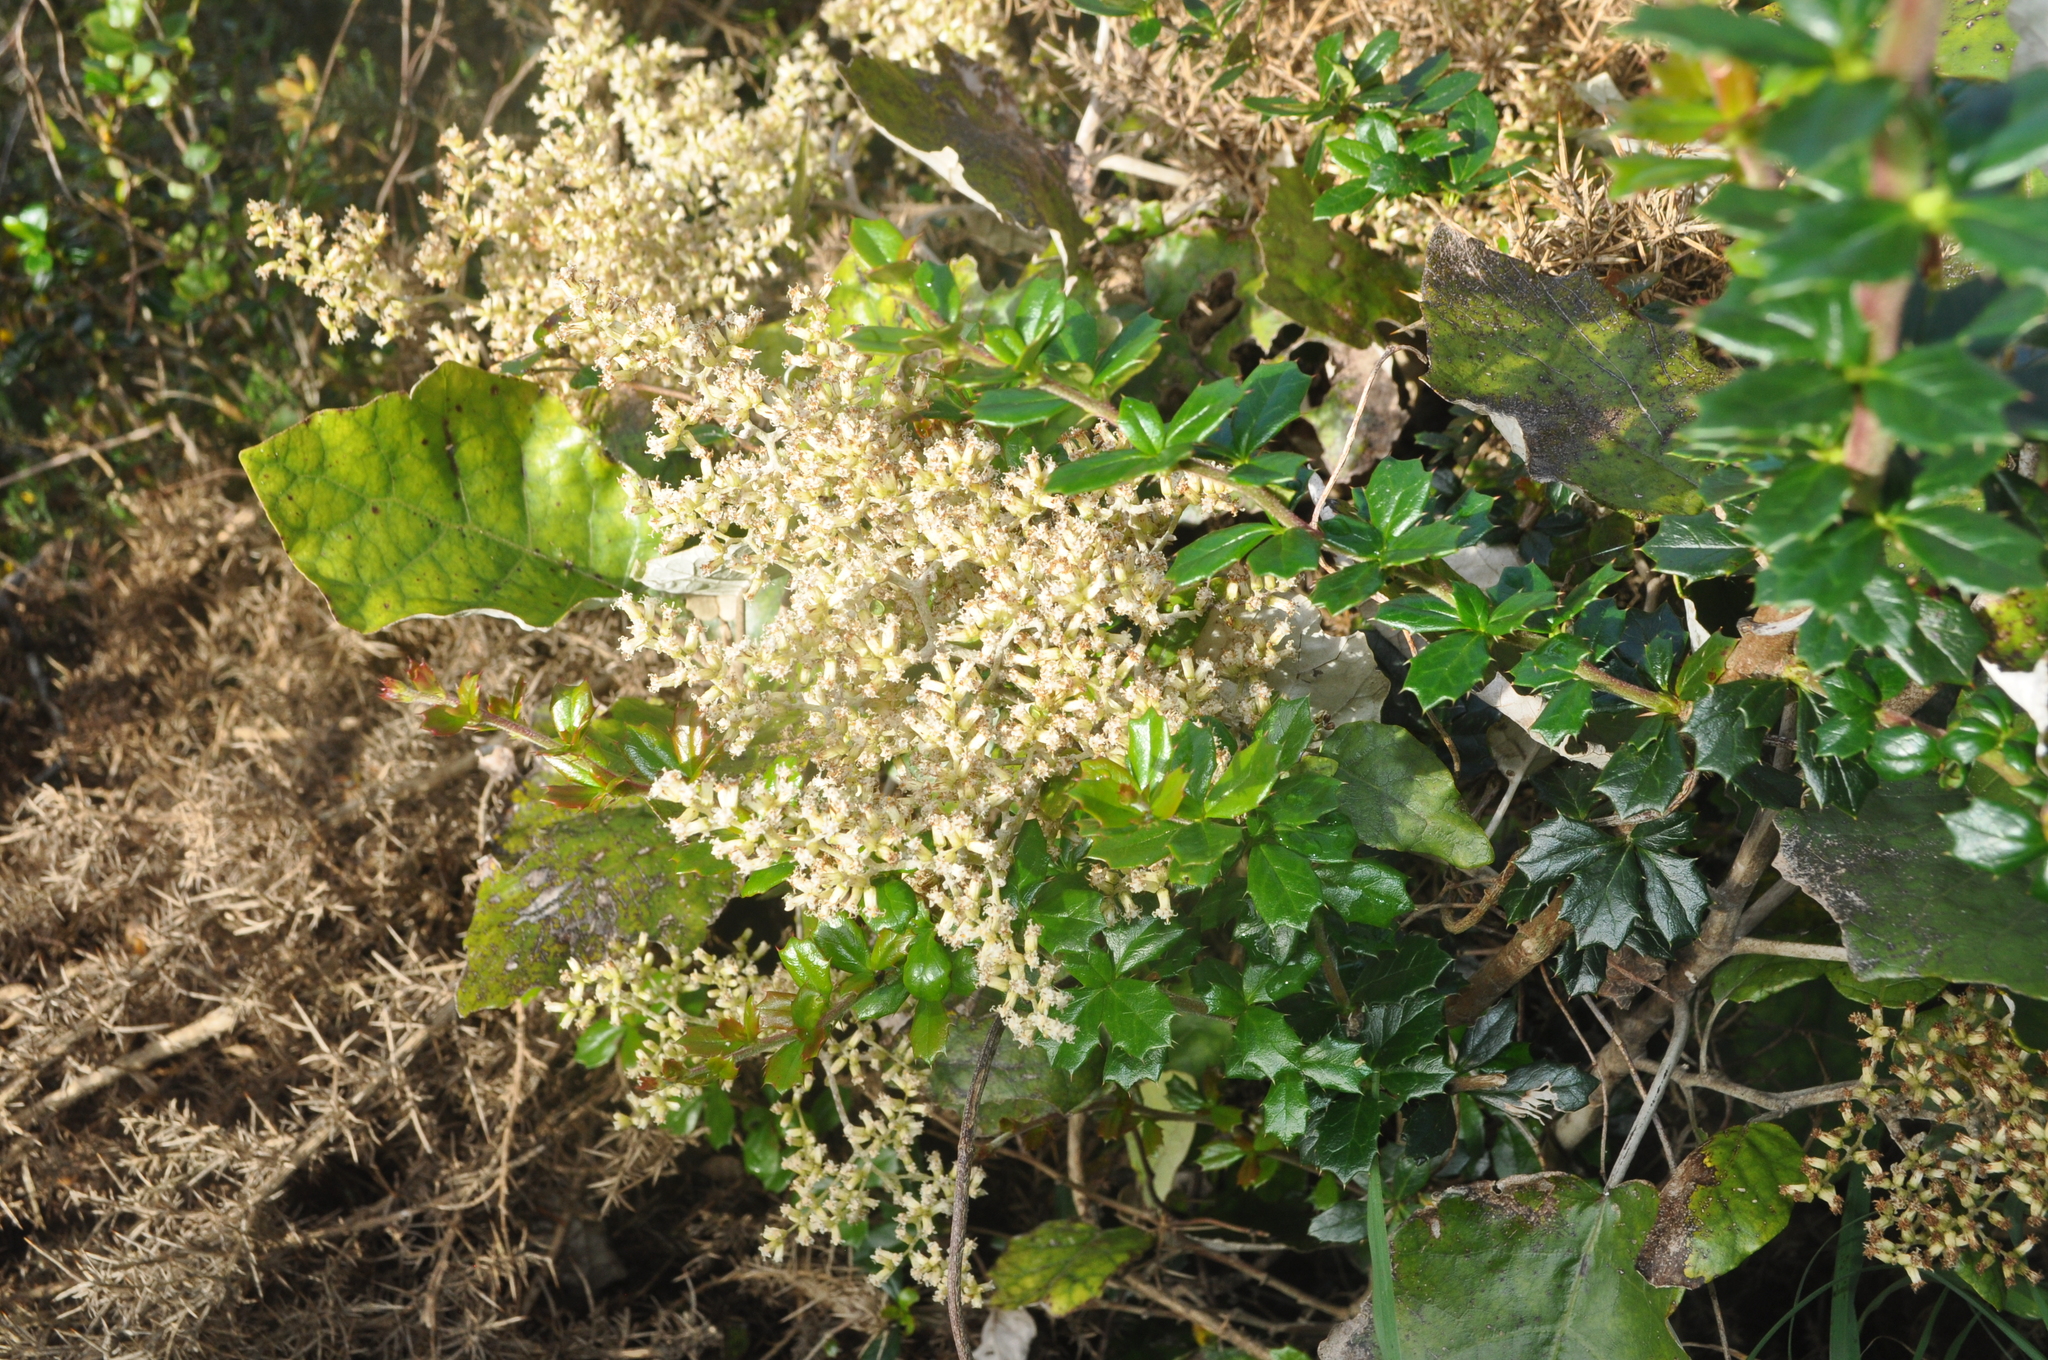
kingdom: Plantae
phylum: Tracheophyta
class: Magnoliopsida
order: Asterales
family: Asteraceae
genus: Brachyglottis
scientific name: Brachyglottis repanda
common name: Hedge ragwort
